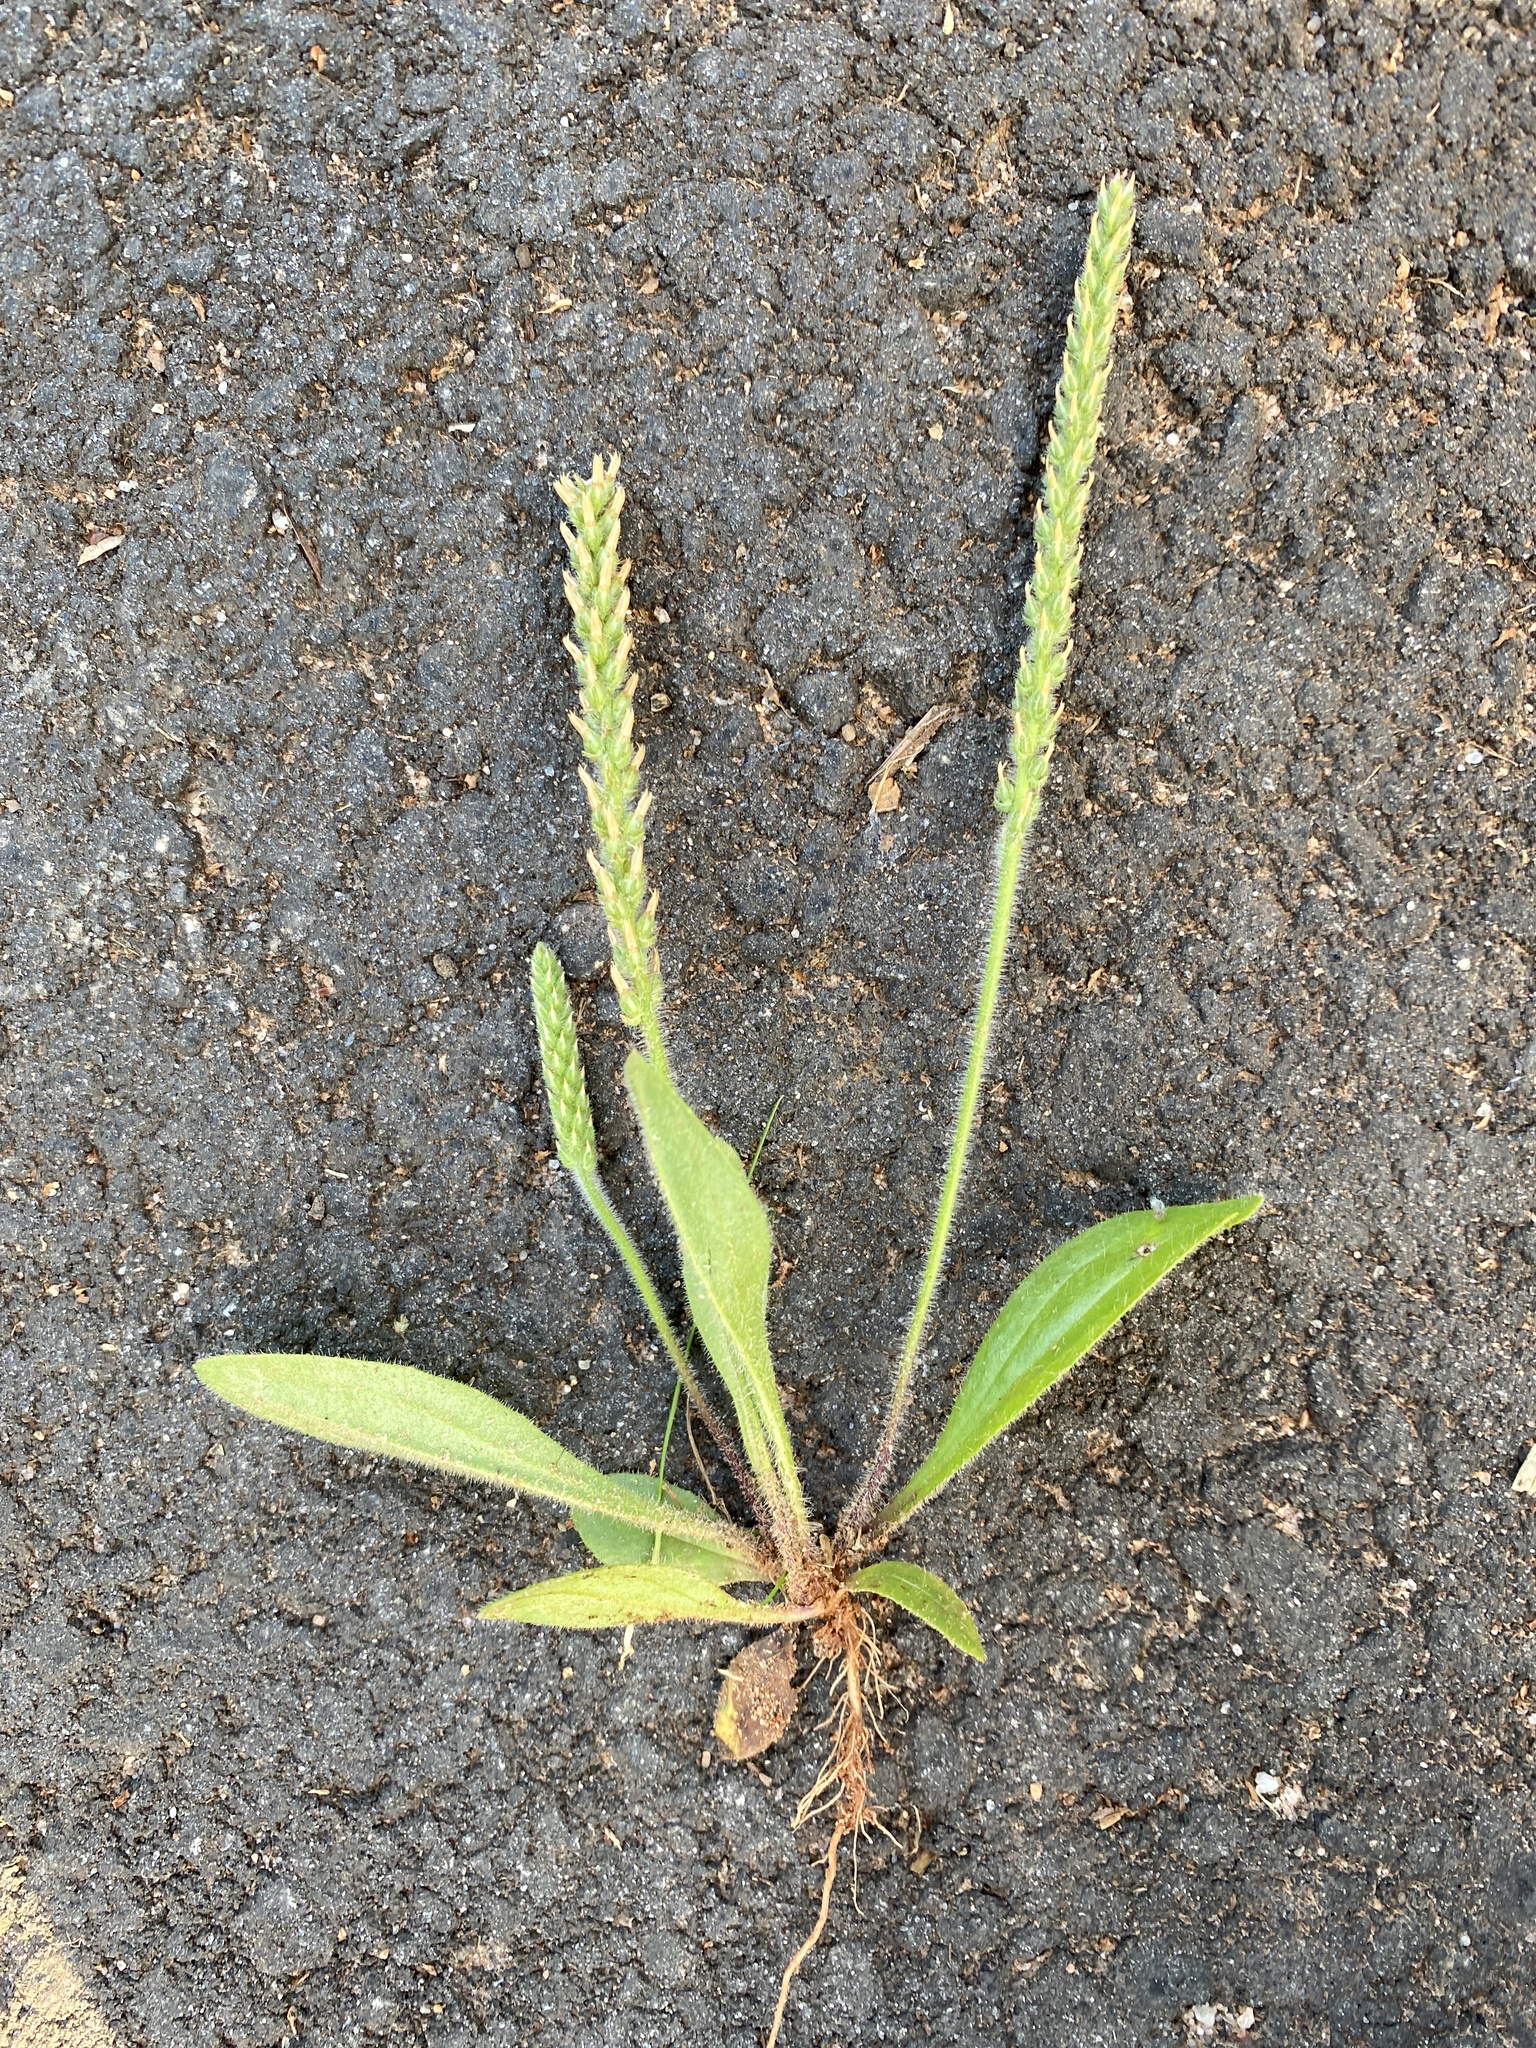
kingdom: Plantae
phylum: Tracheophyta
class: Magnoliopsida
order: Lamiales
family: Plantaginaceae
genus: Plantago
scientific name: Plantago virginica
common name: Hoary plantain
